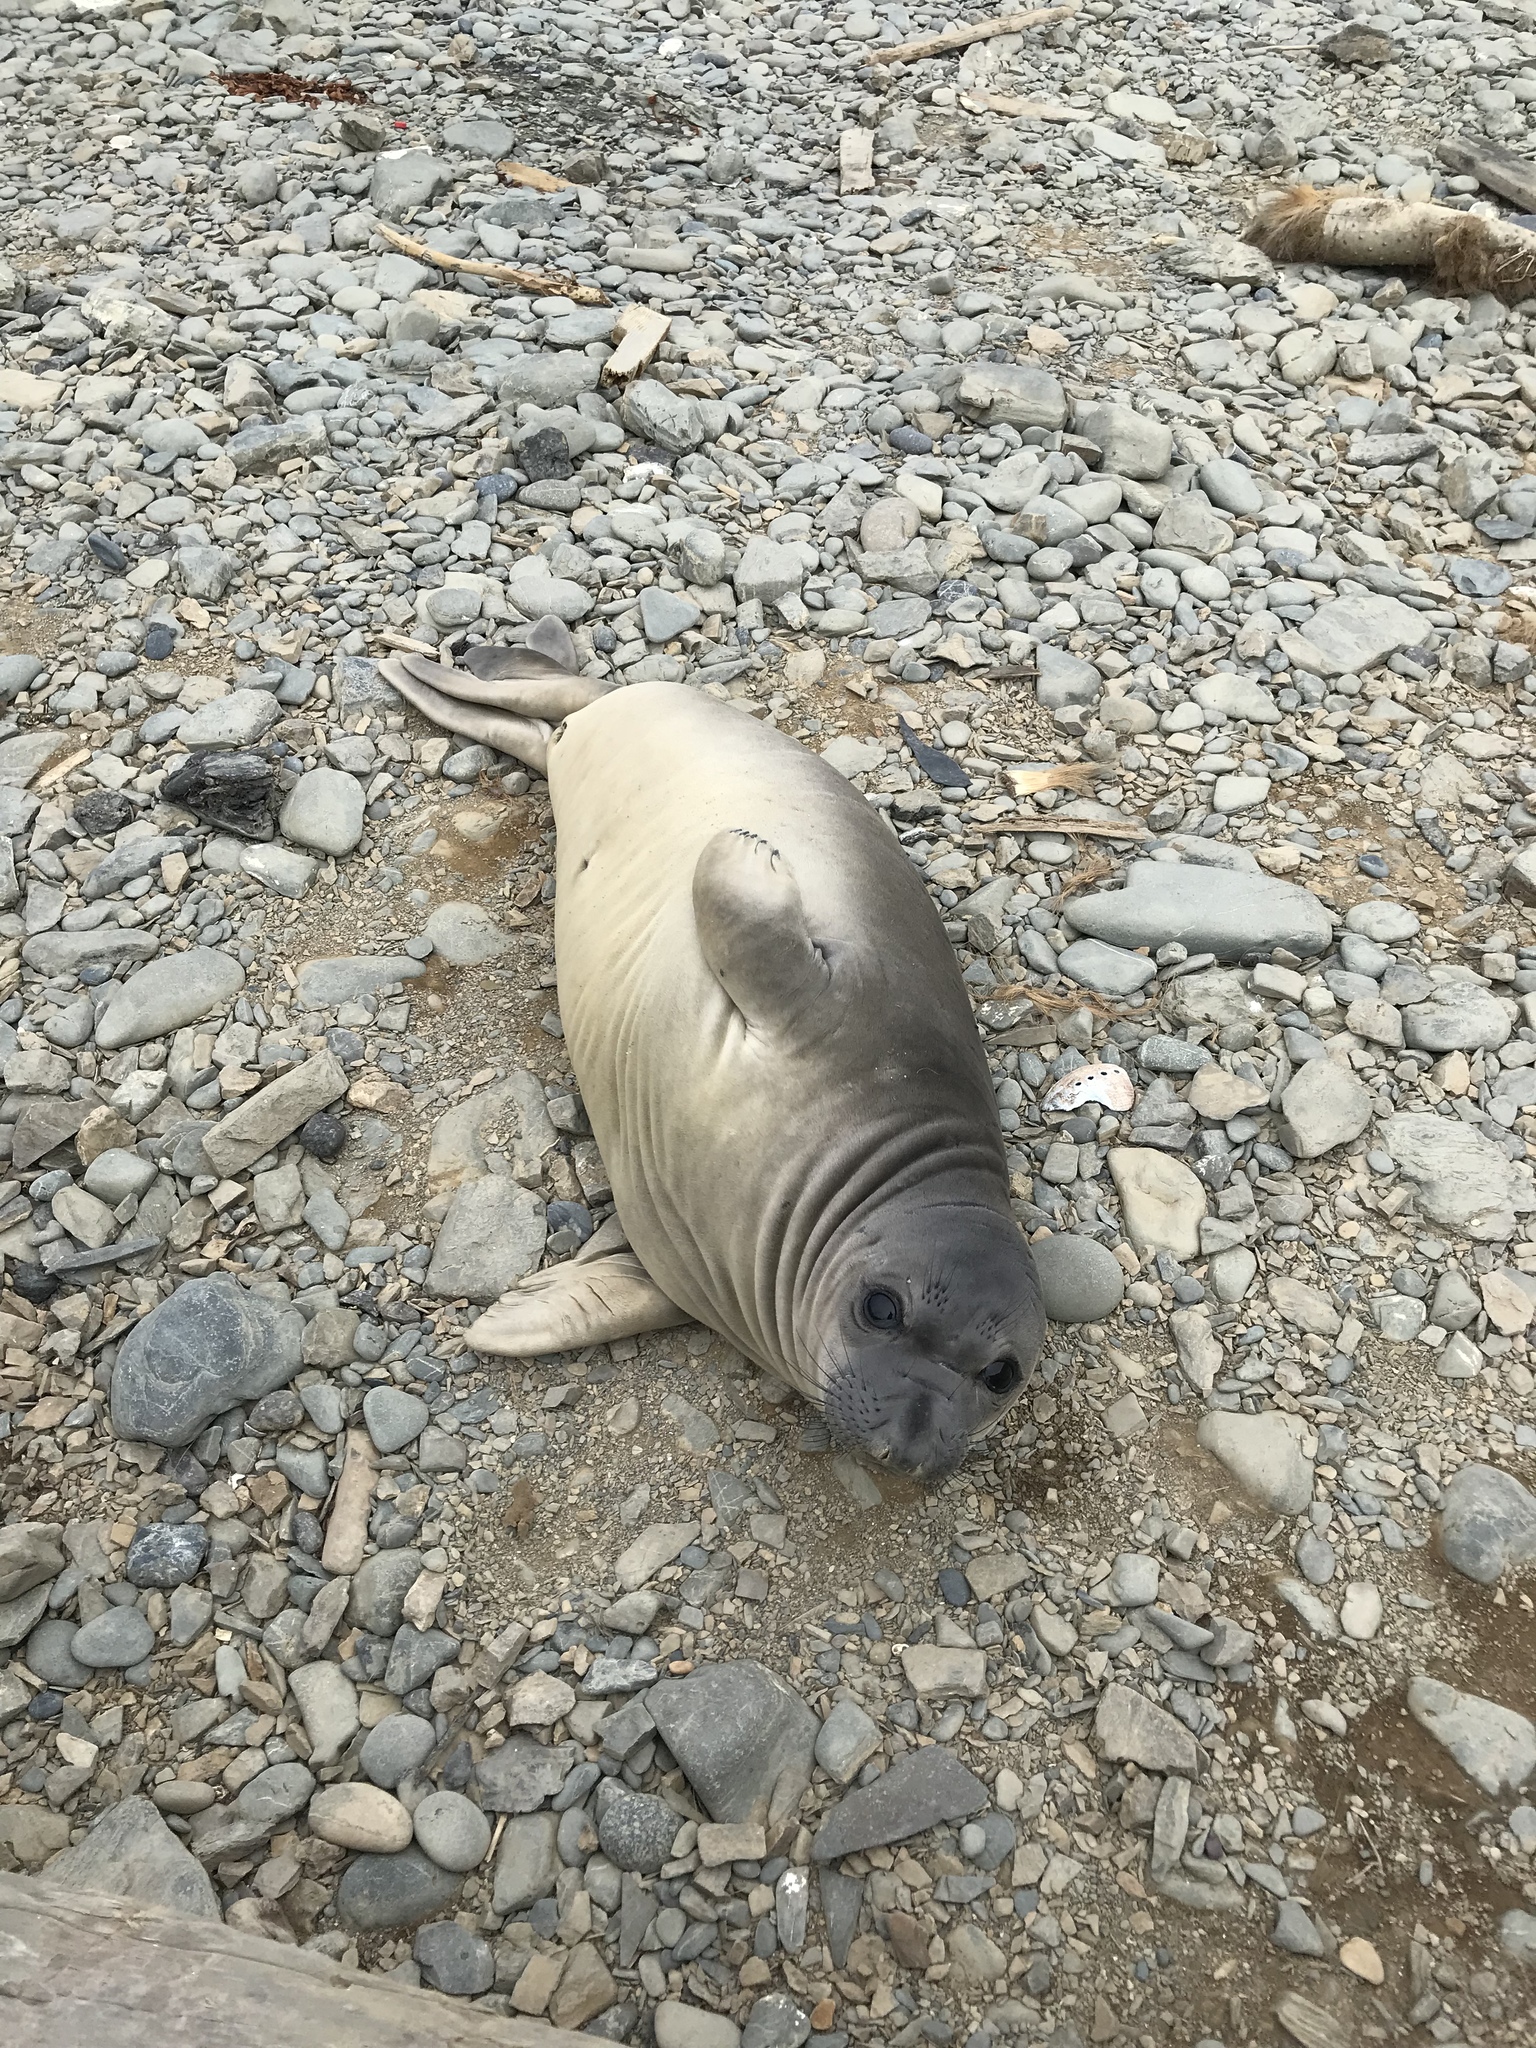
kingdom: Animalia
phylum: Chordata
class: Mammalia
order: Carnivora
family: Phocidae
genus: Mirounga
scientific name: Mirounga angustirostris
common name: Northern elephant seal
